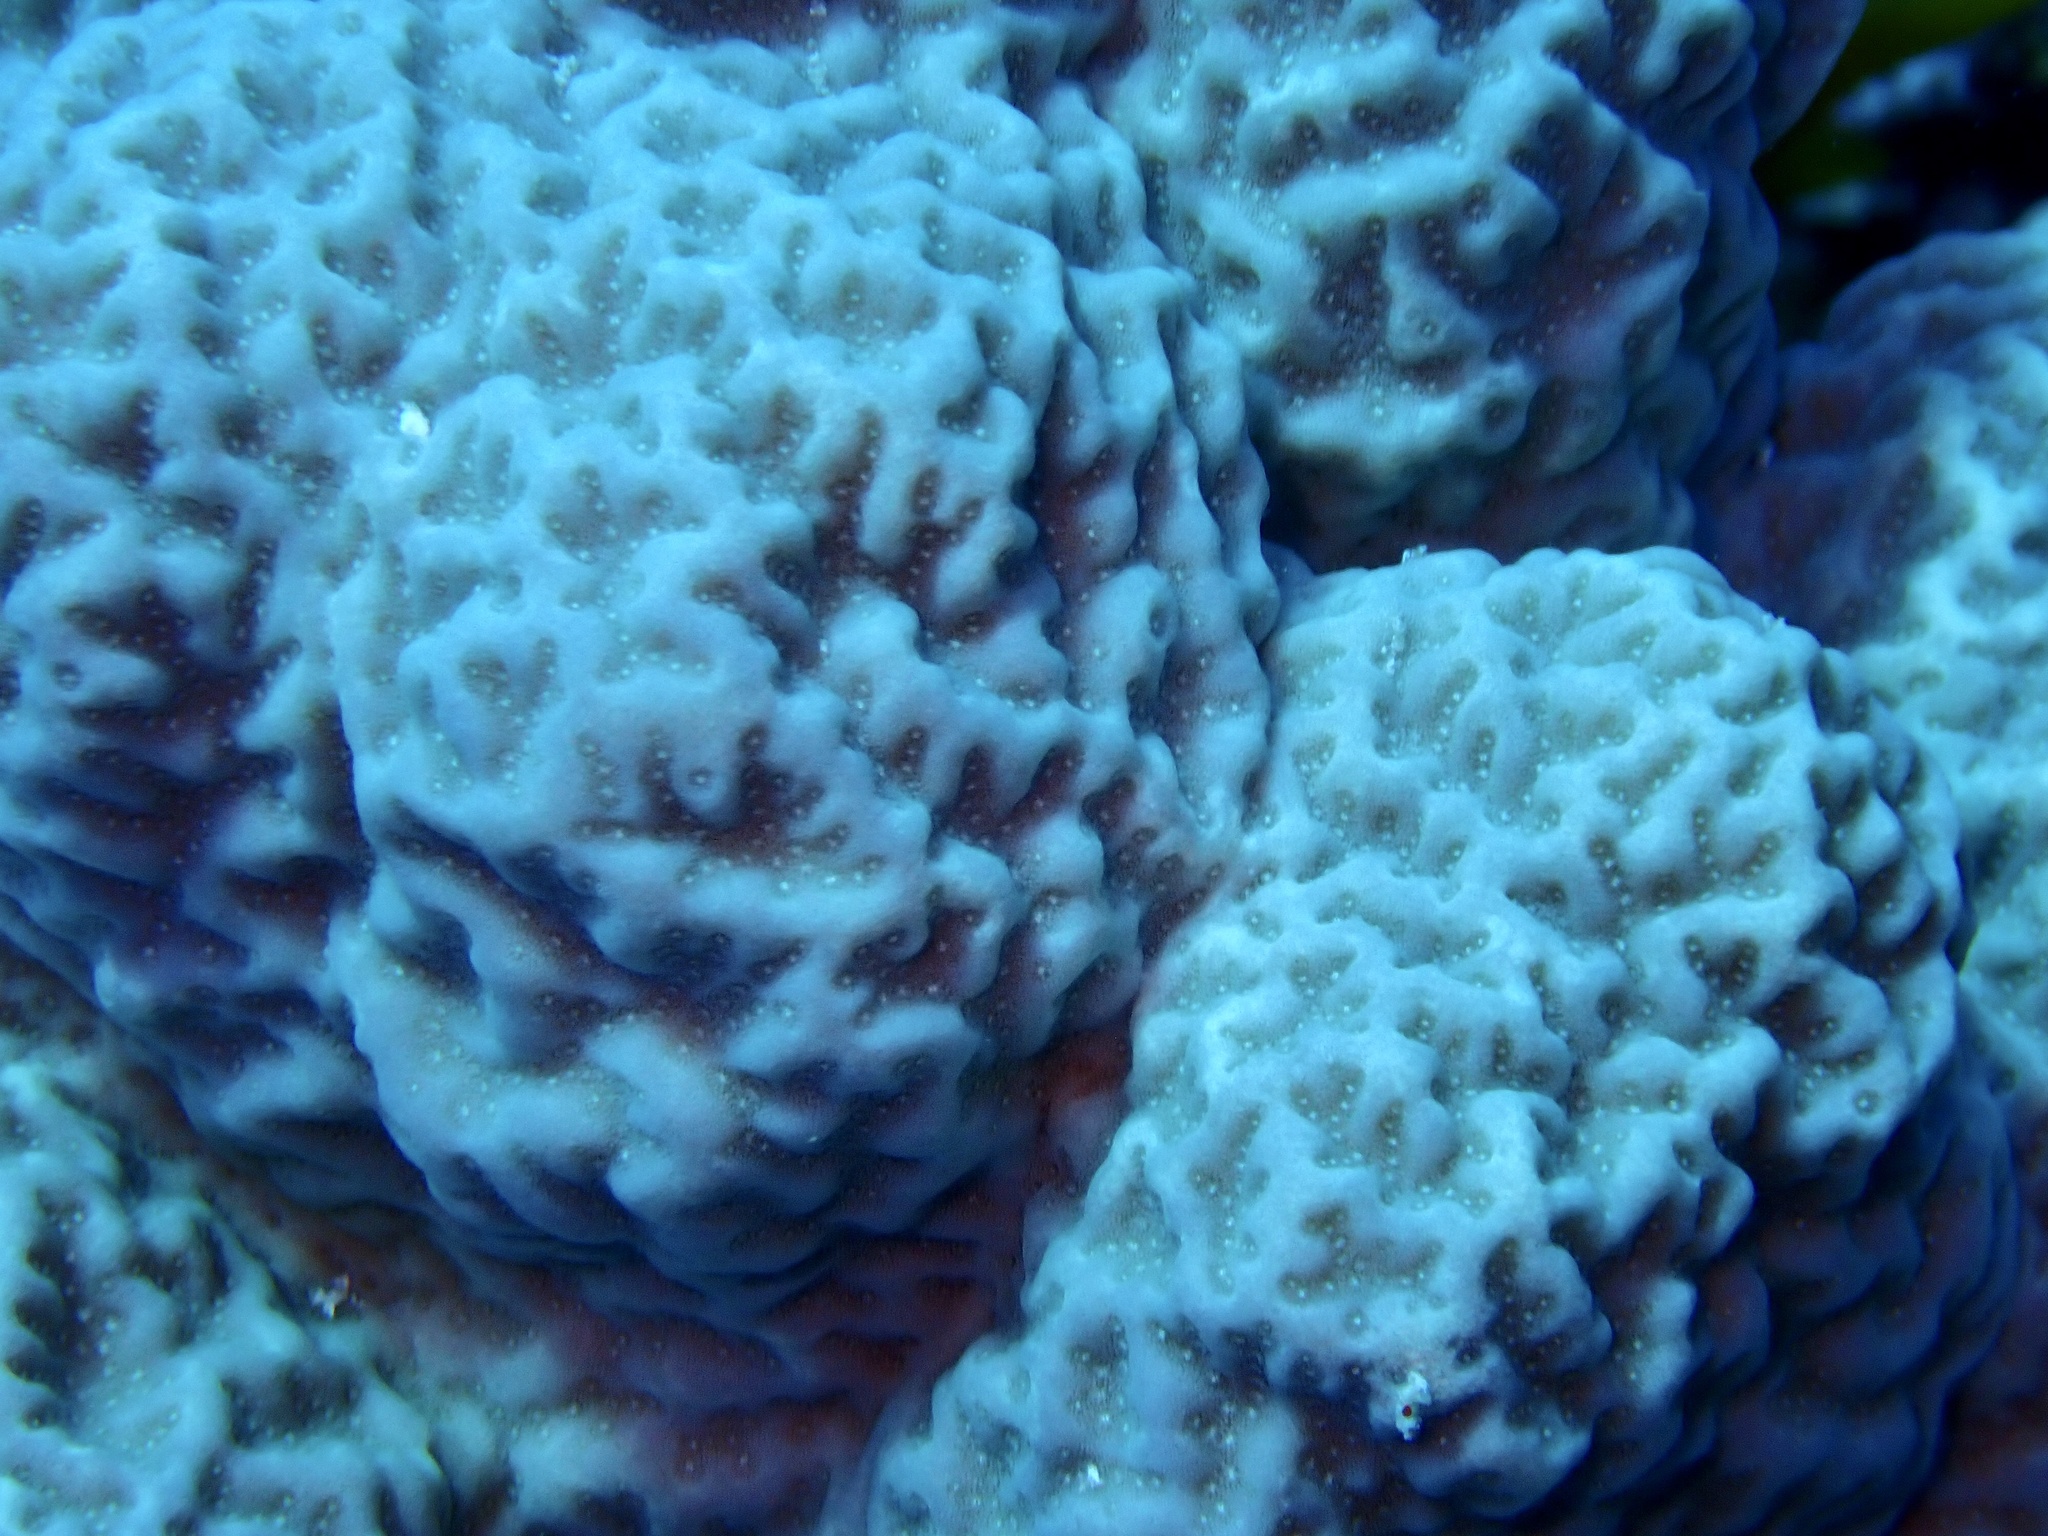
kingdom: Animalia
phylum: Cnidaria
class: Anthozoa
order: Scleractinia
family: Poritidae
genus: Porites
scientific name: Porites rus
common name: Hump coral
